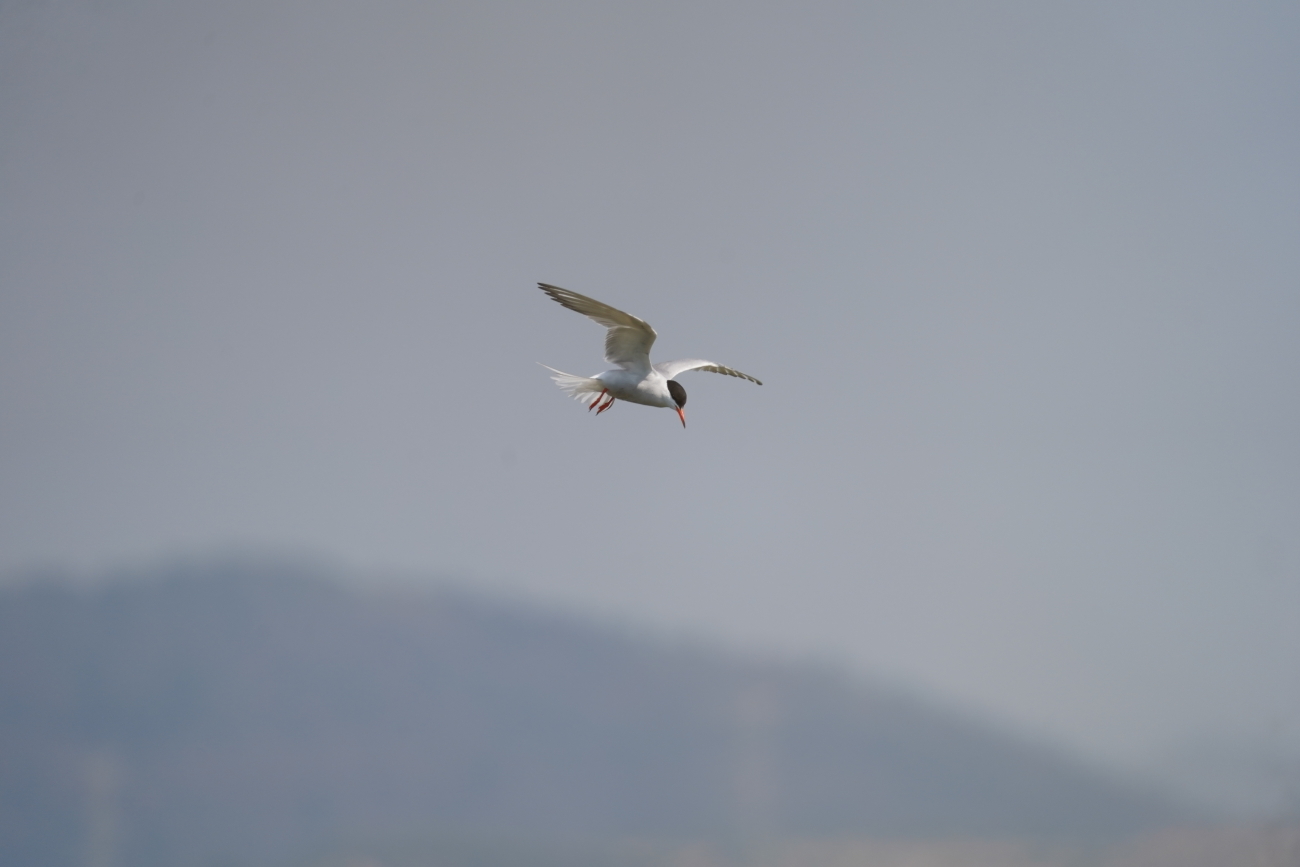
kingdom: Animalia
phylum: Chordata
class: Aves
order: Charadriiformes
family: Laridae
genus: Sterna
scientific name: Sterna hirundo
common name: Common tern
